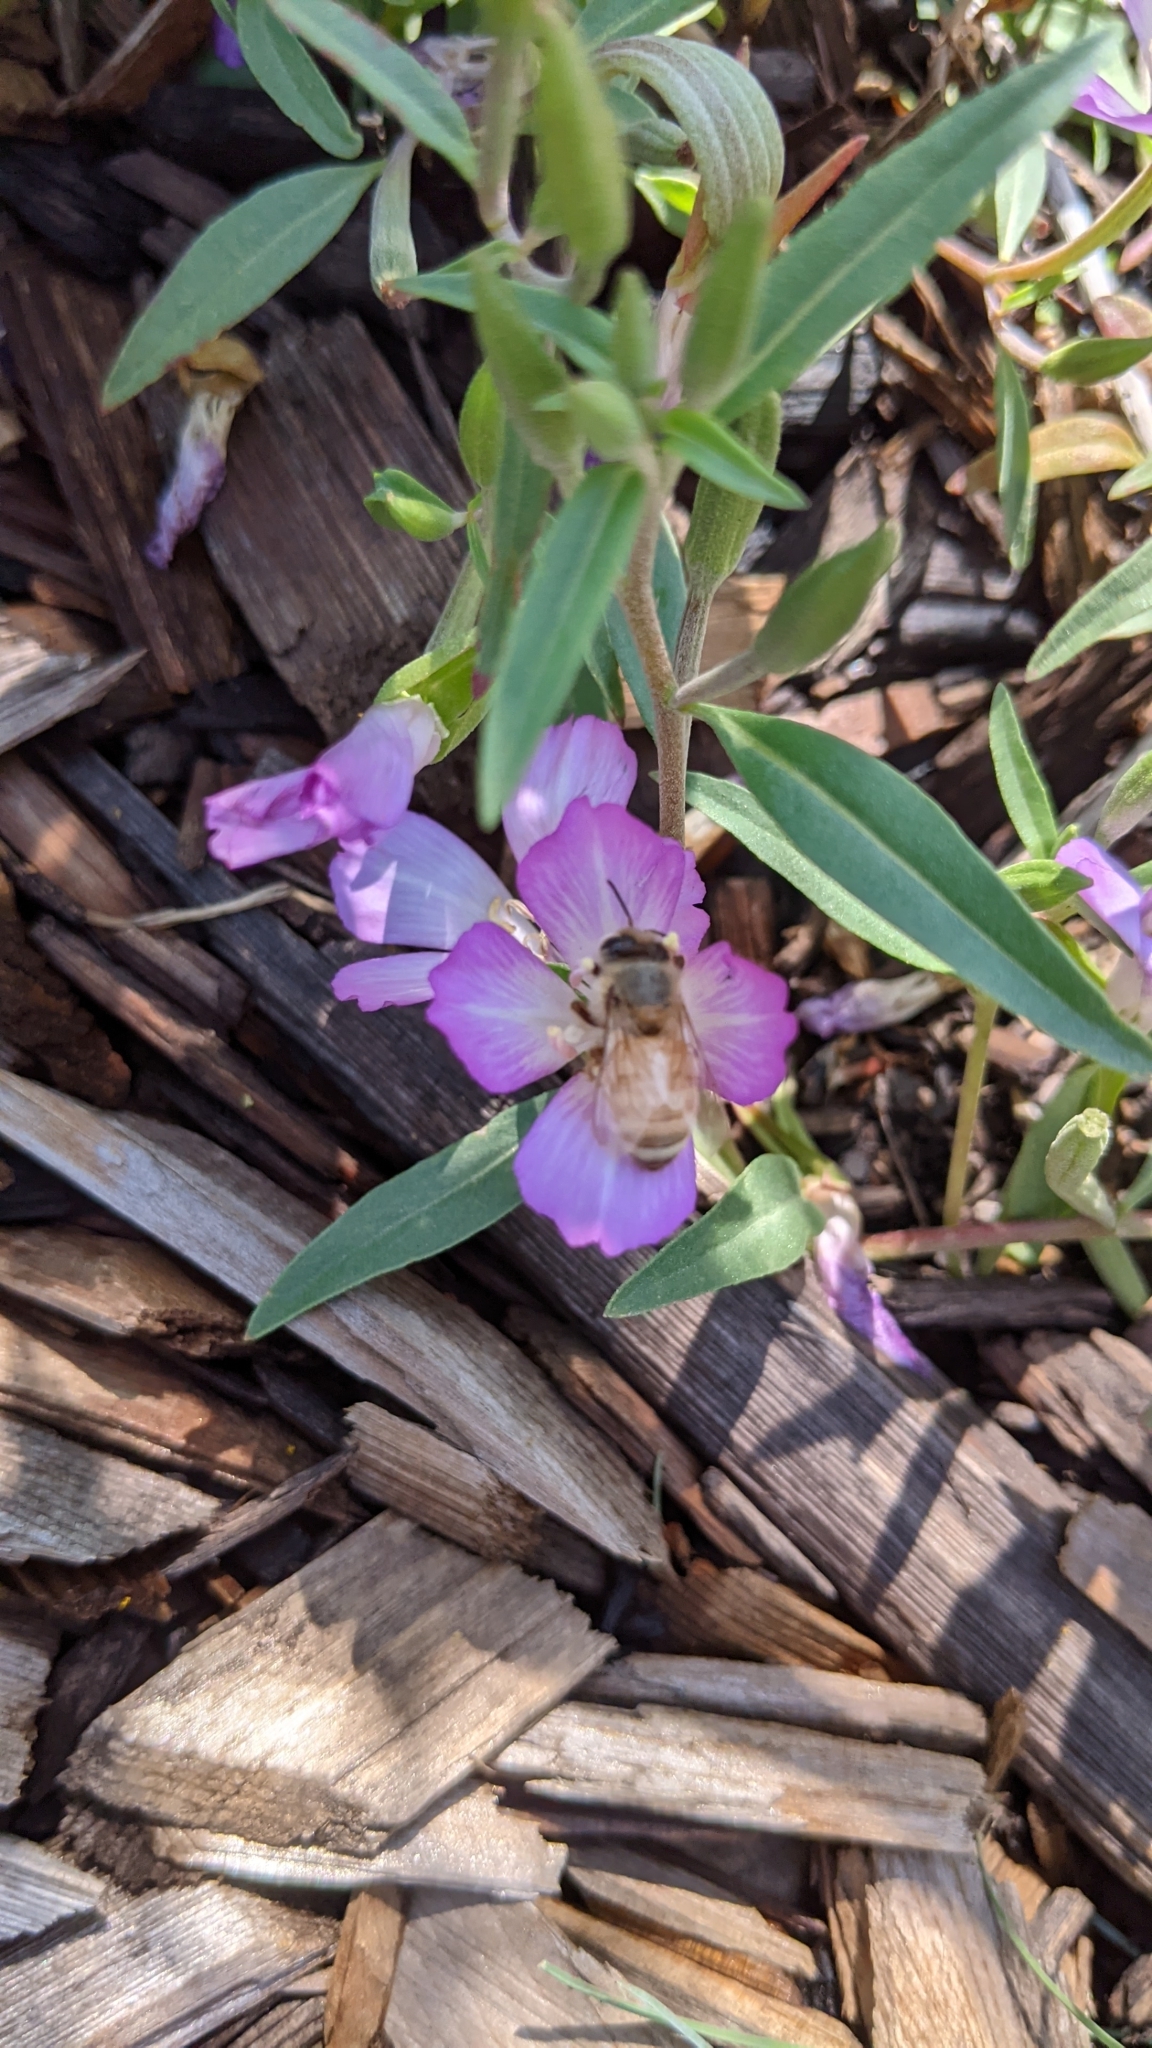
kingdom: Animalia
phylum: Arthropoda
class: Insecta
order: Hymenoptera
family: Apidae
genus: Apis
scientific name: Apis mellifera
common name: Honey bee
